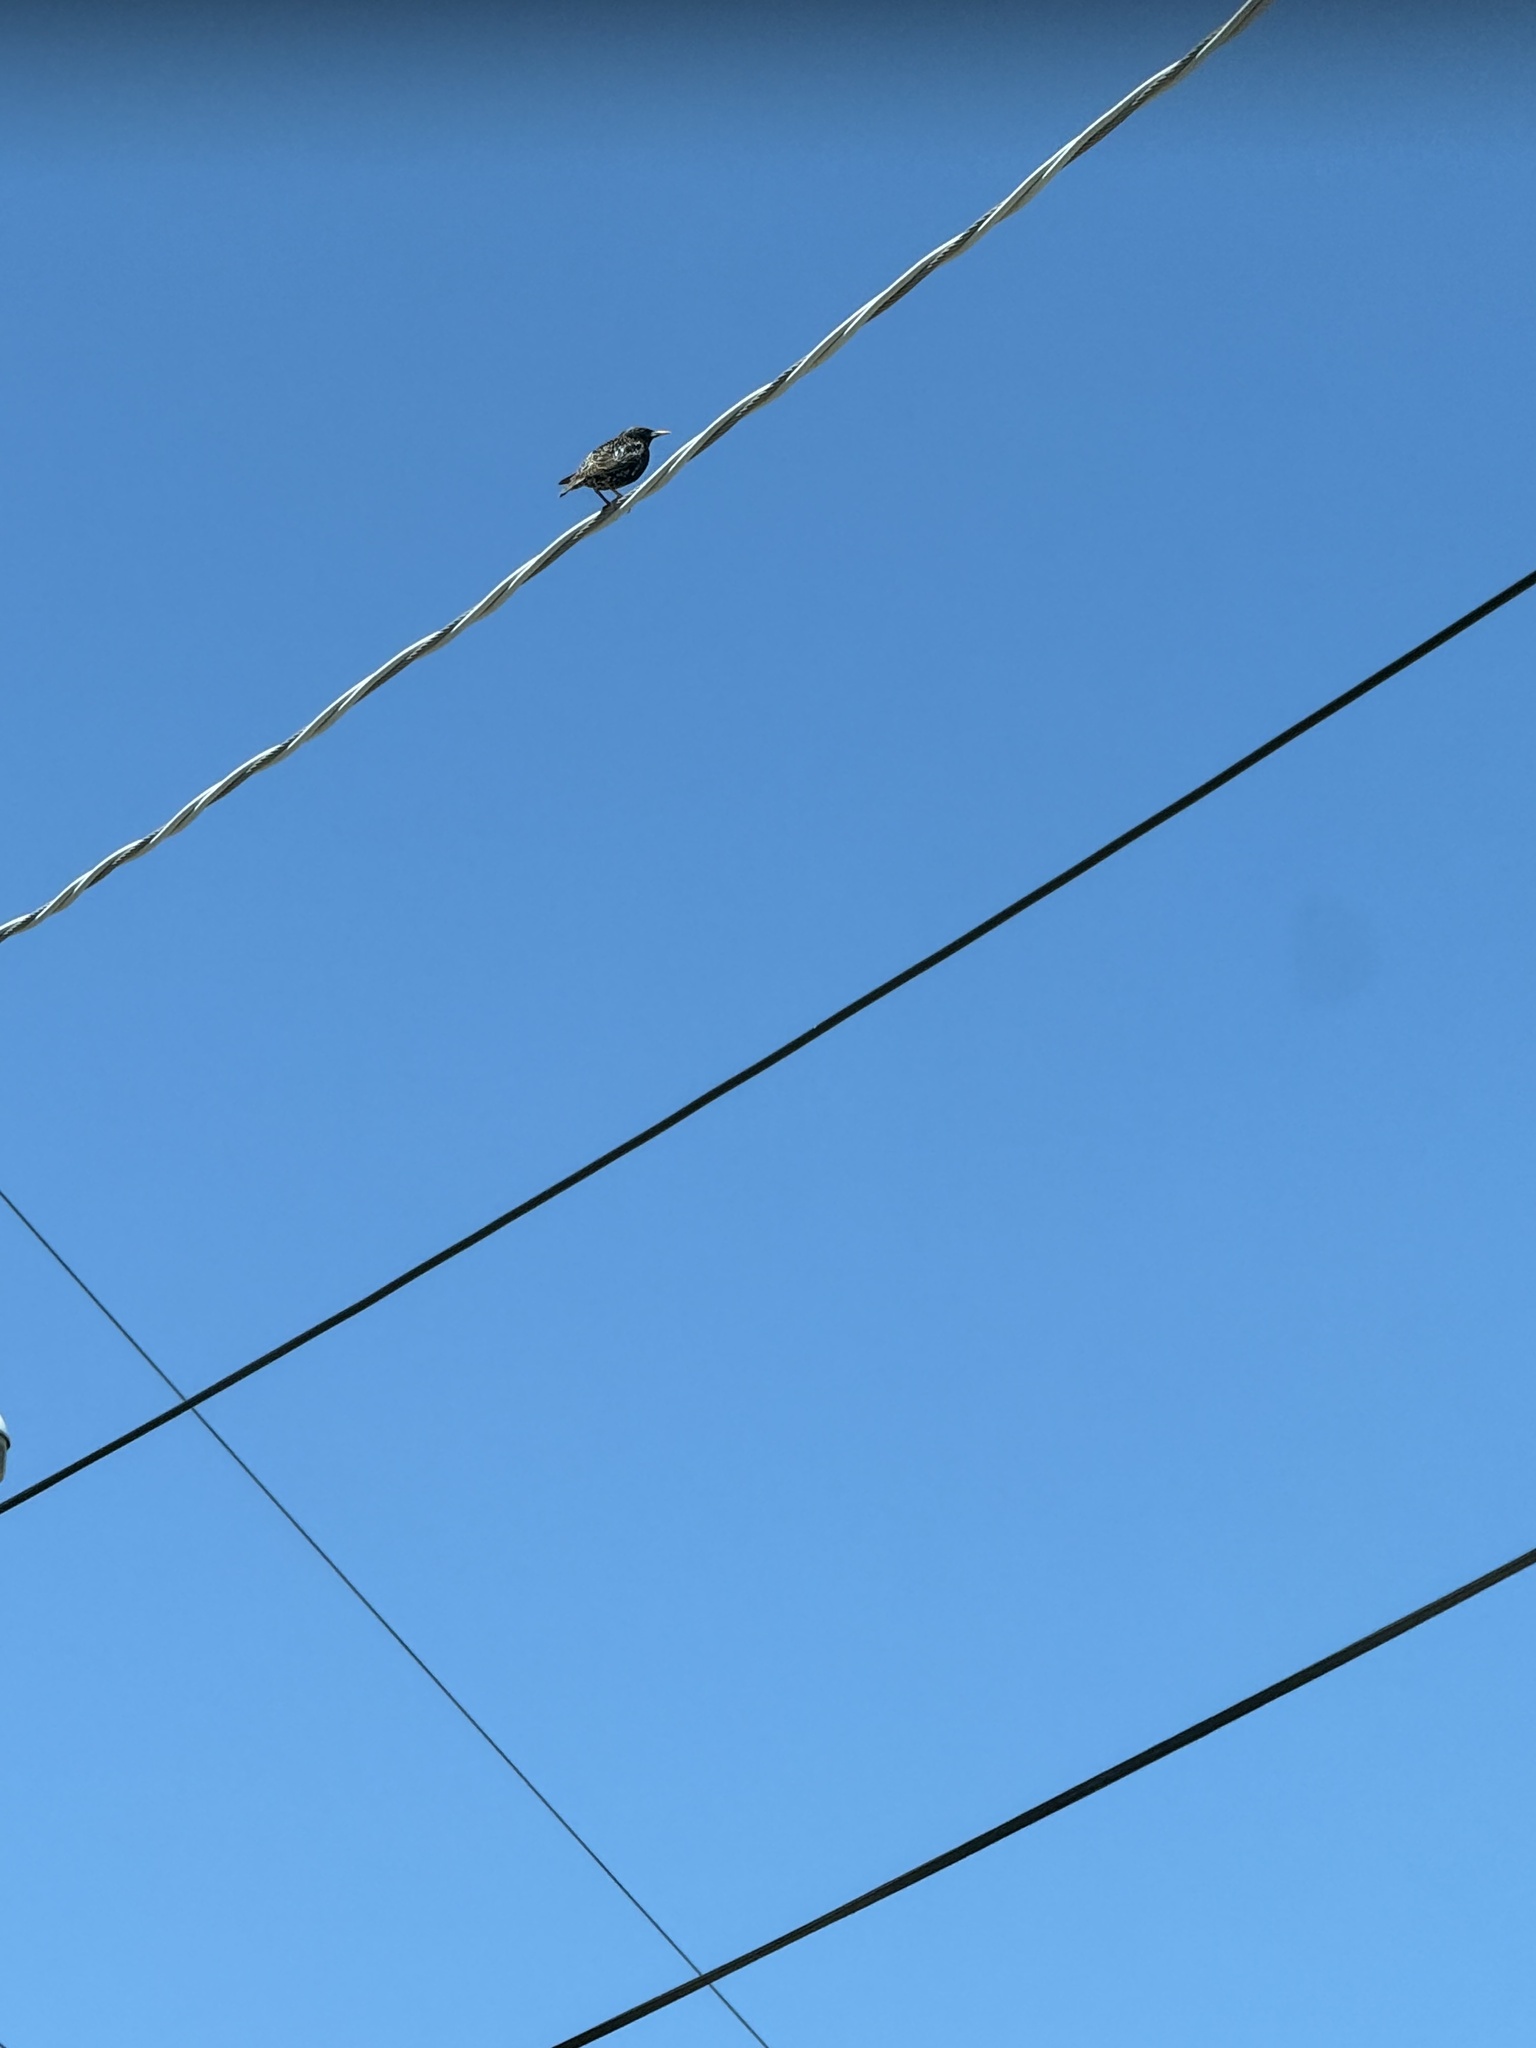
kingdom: Animalia
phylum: Chordata
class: Aves
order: Passeriformes
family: Sturnidae
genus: Sturnus
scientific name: Sturnus vulgaris
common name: Common starling
